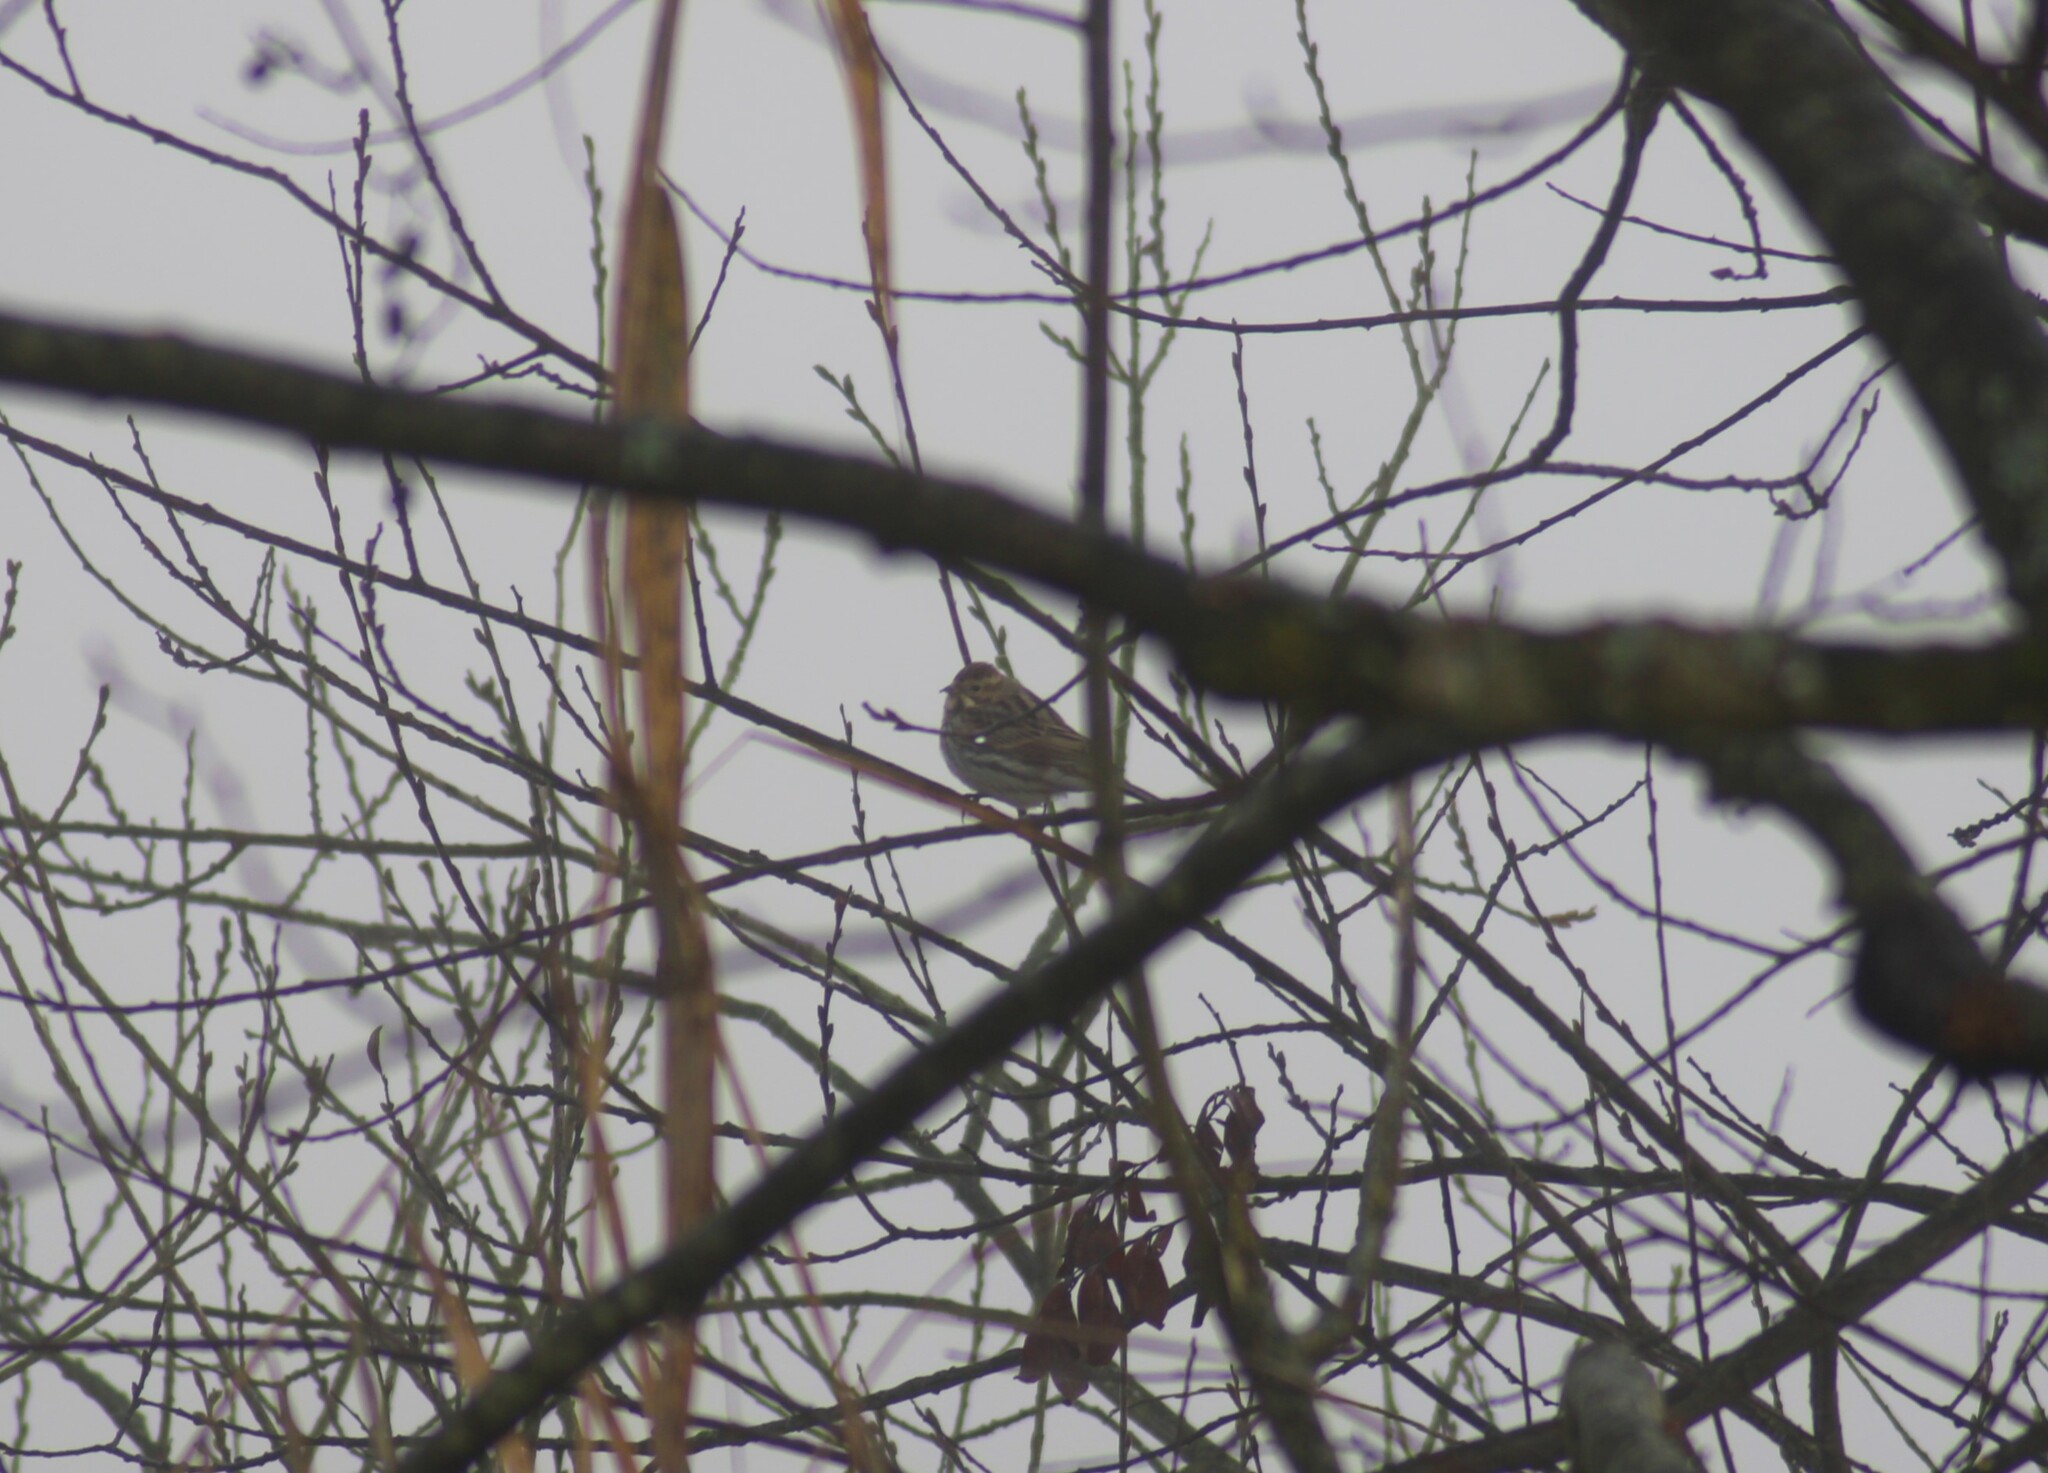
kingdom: Animalia
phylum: Chordata
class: Aves
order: Passeriformes
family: Emberizidae
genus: Emberiza
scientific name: Emberiza schoeniclus
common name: Reed bunting
